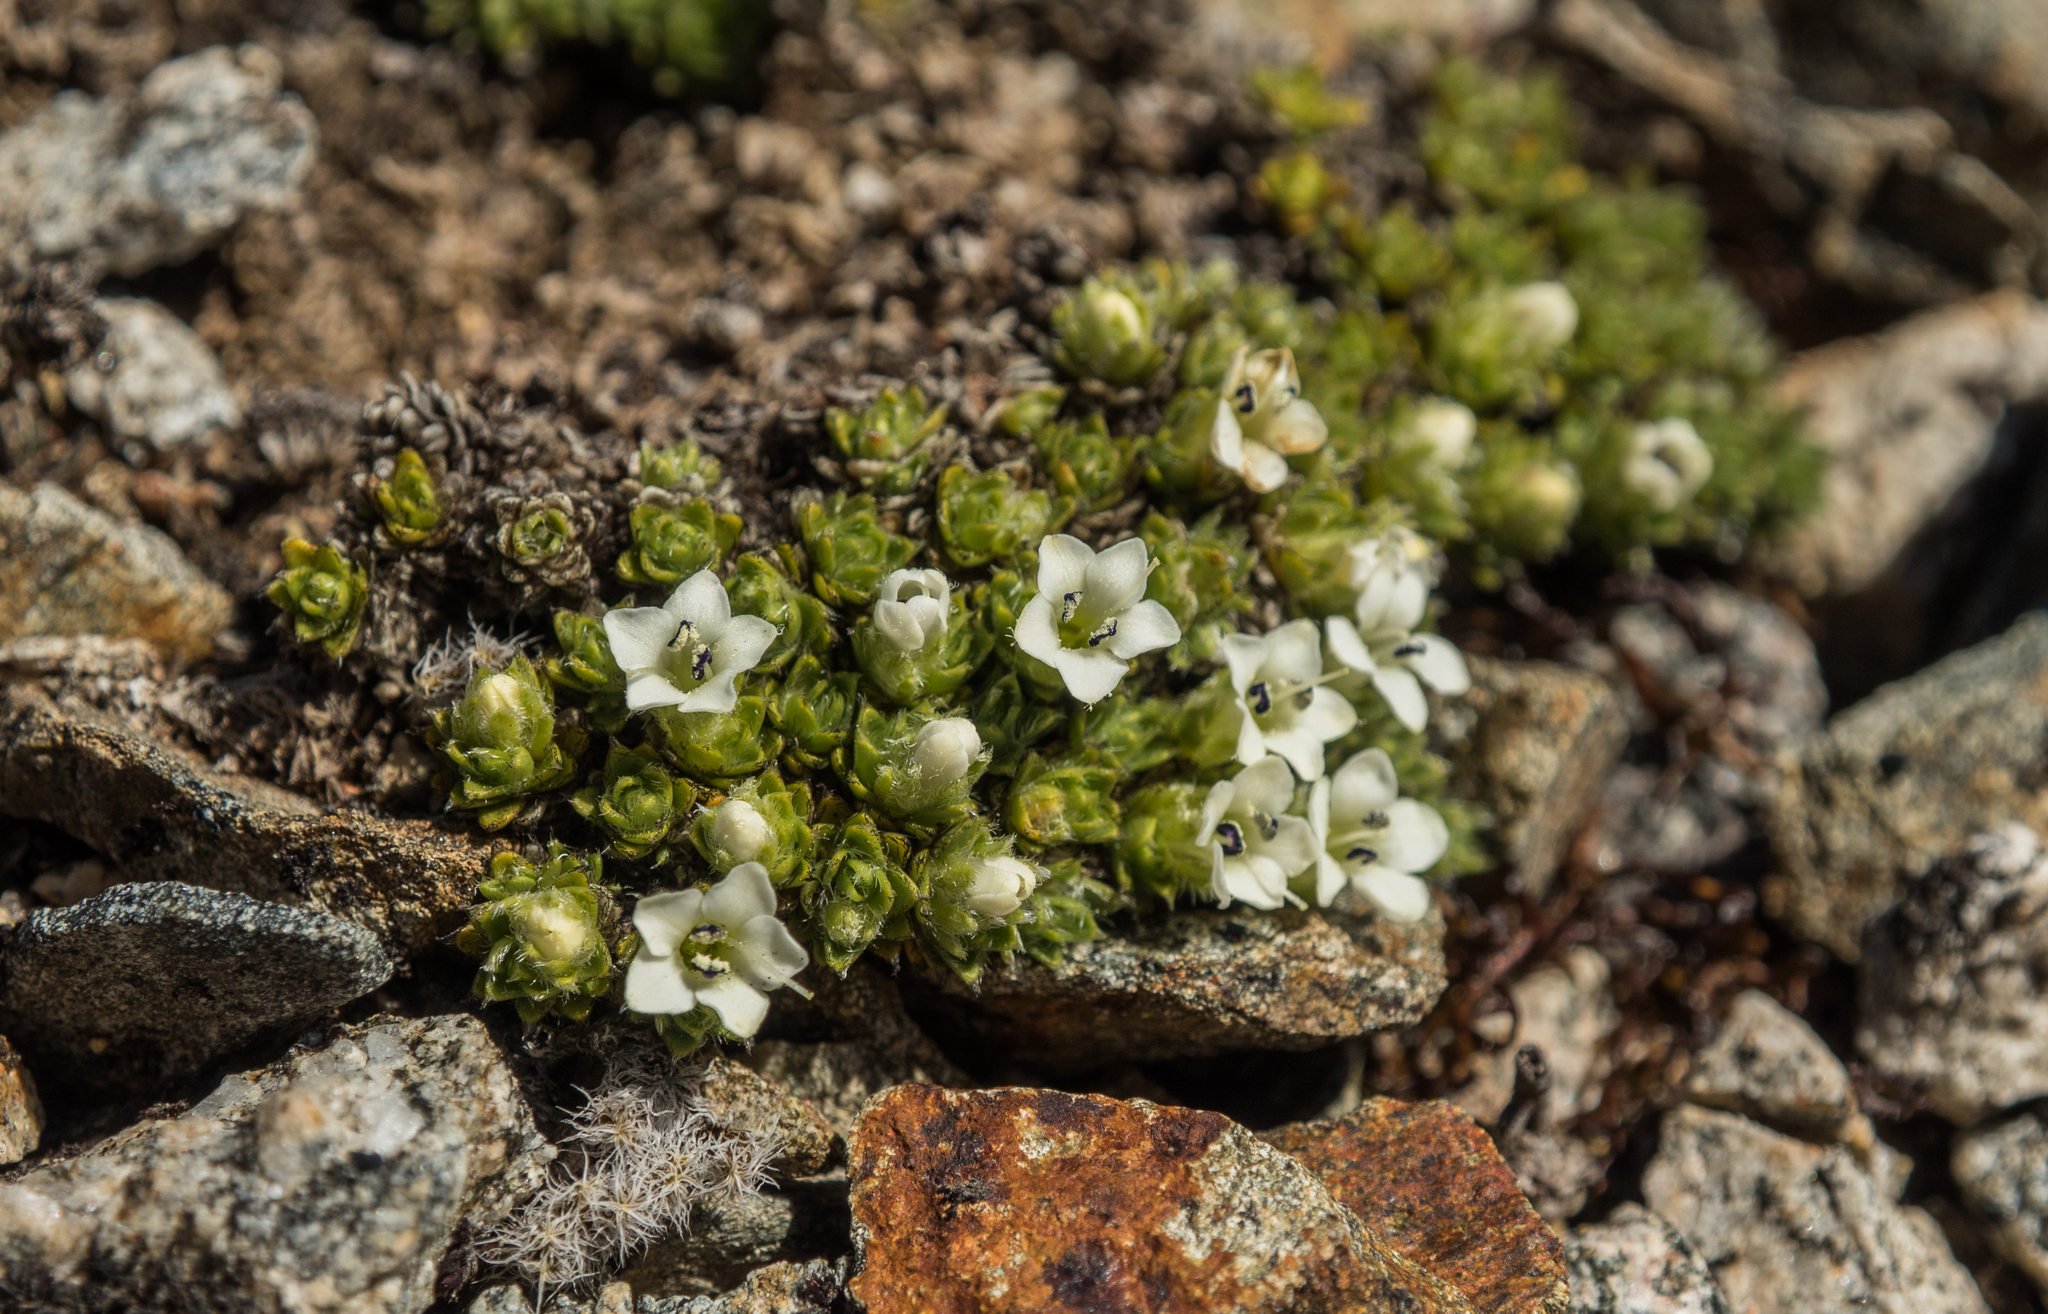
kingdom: Plantae
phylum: Tracheophyta
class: Magnoliopsida
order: Lamiales
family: Plantaginaceae
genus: Veronica
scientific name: Veronica ciliolata
